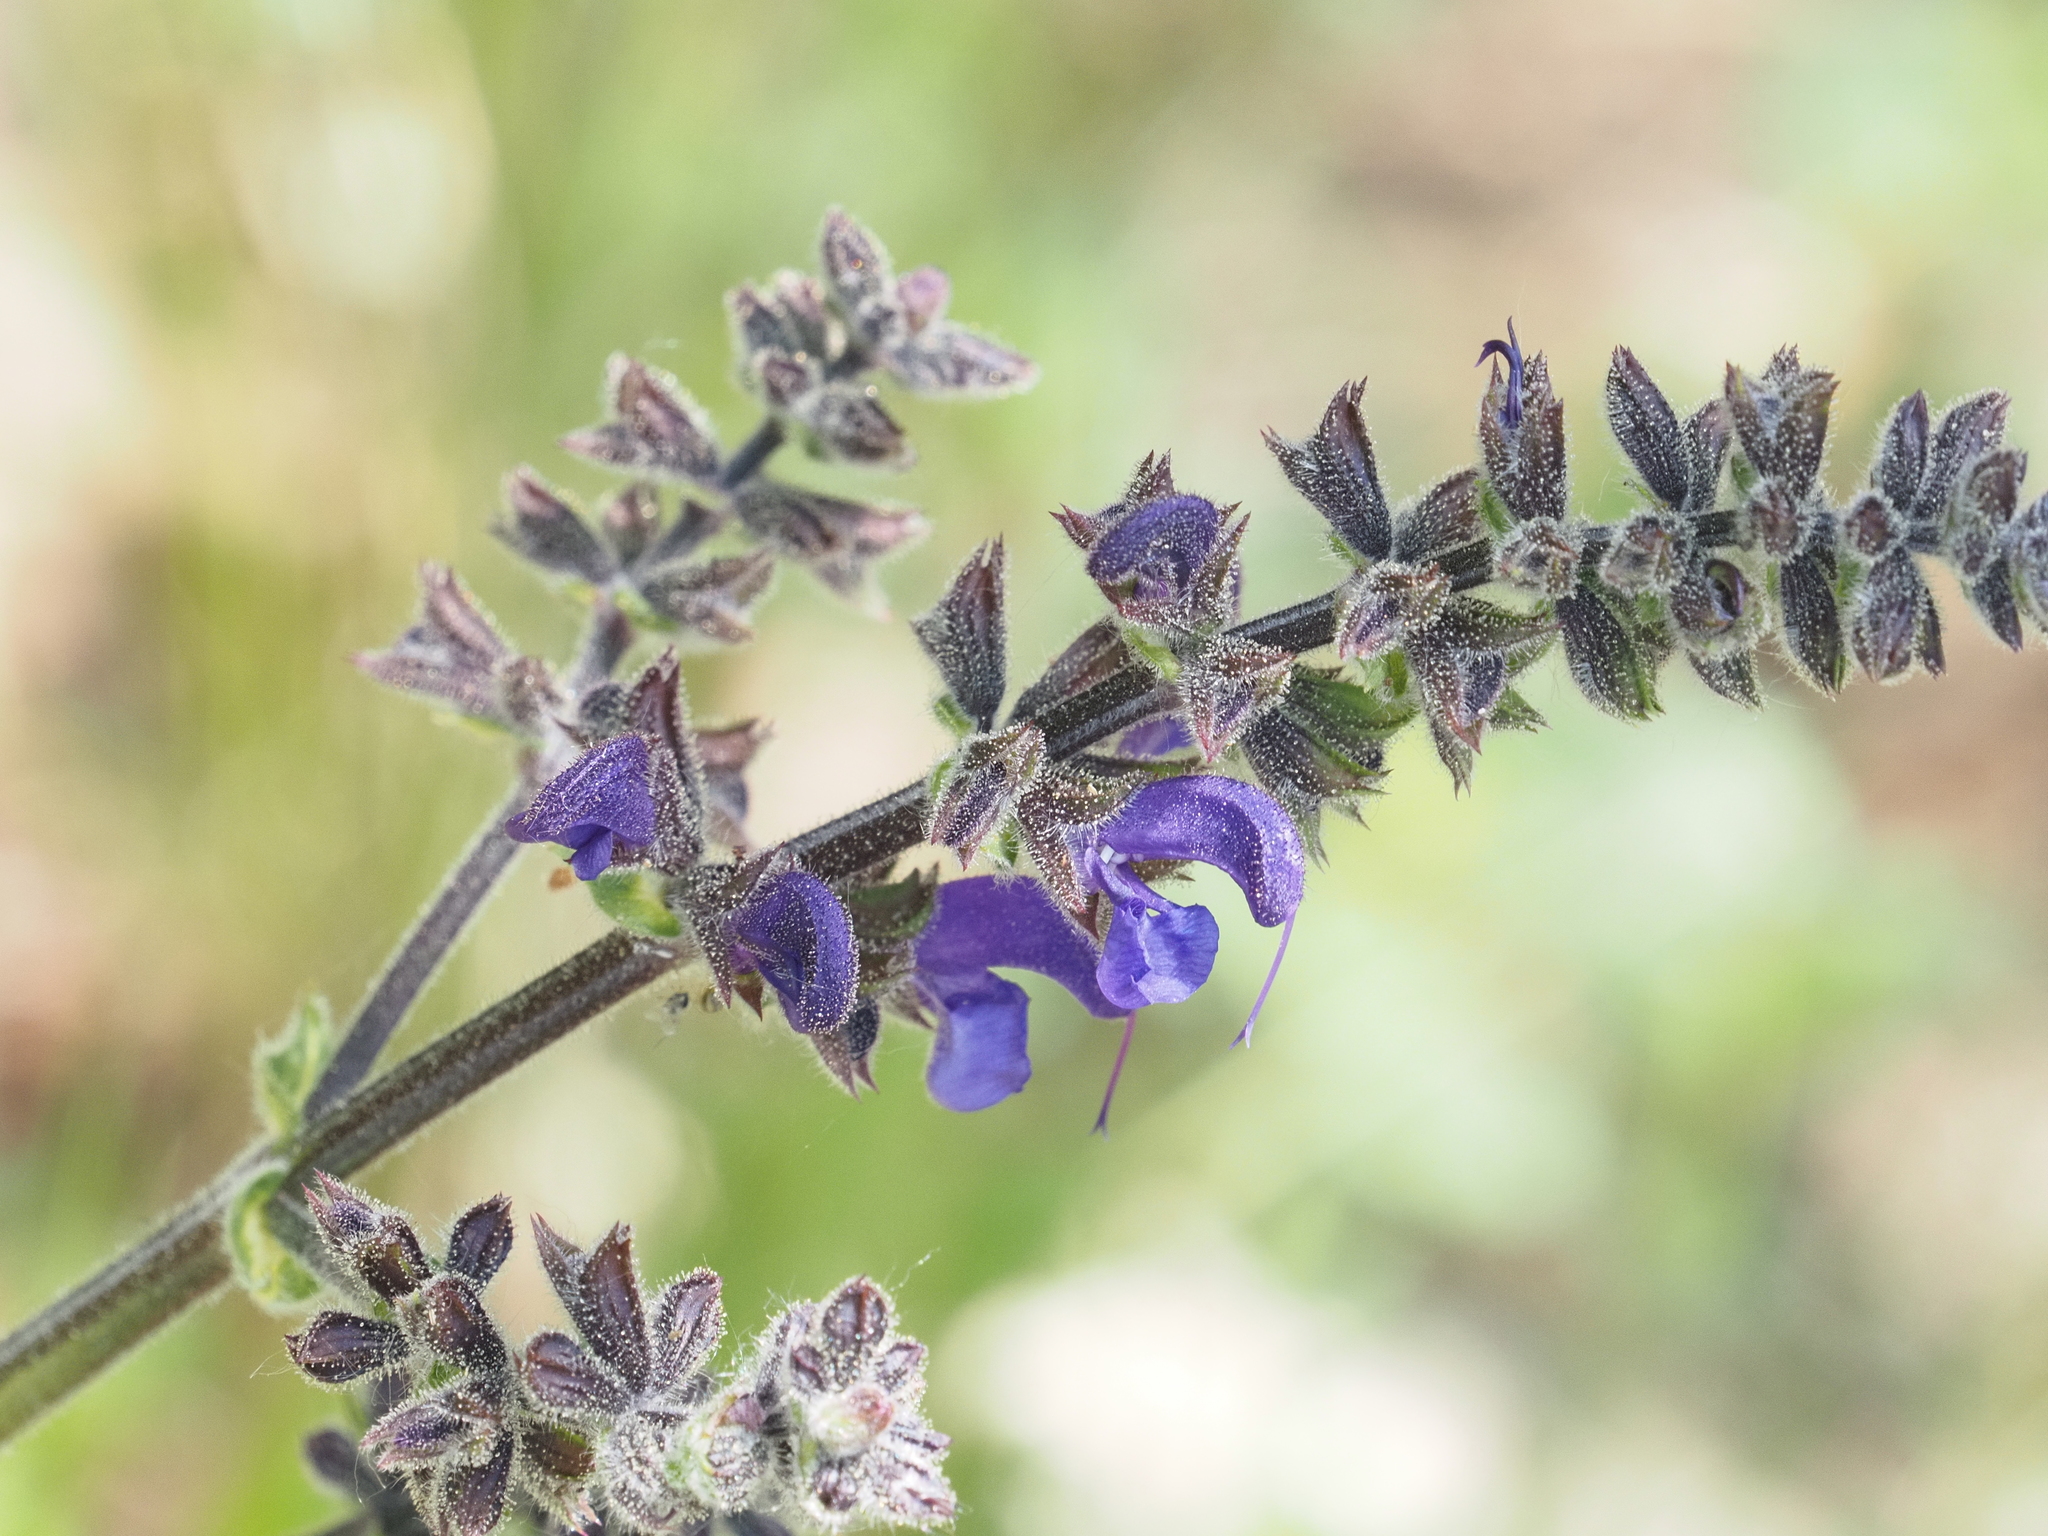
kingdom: Plantae
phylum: Tracheophyta
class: Magnoliopsida
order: Lamiales
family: Lamiaceae
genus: Salvia
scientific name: Salvia pratensis
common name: Meadow sage
